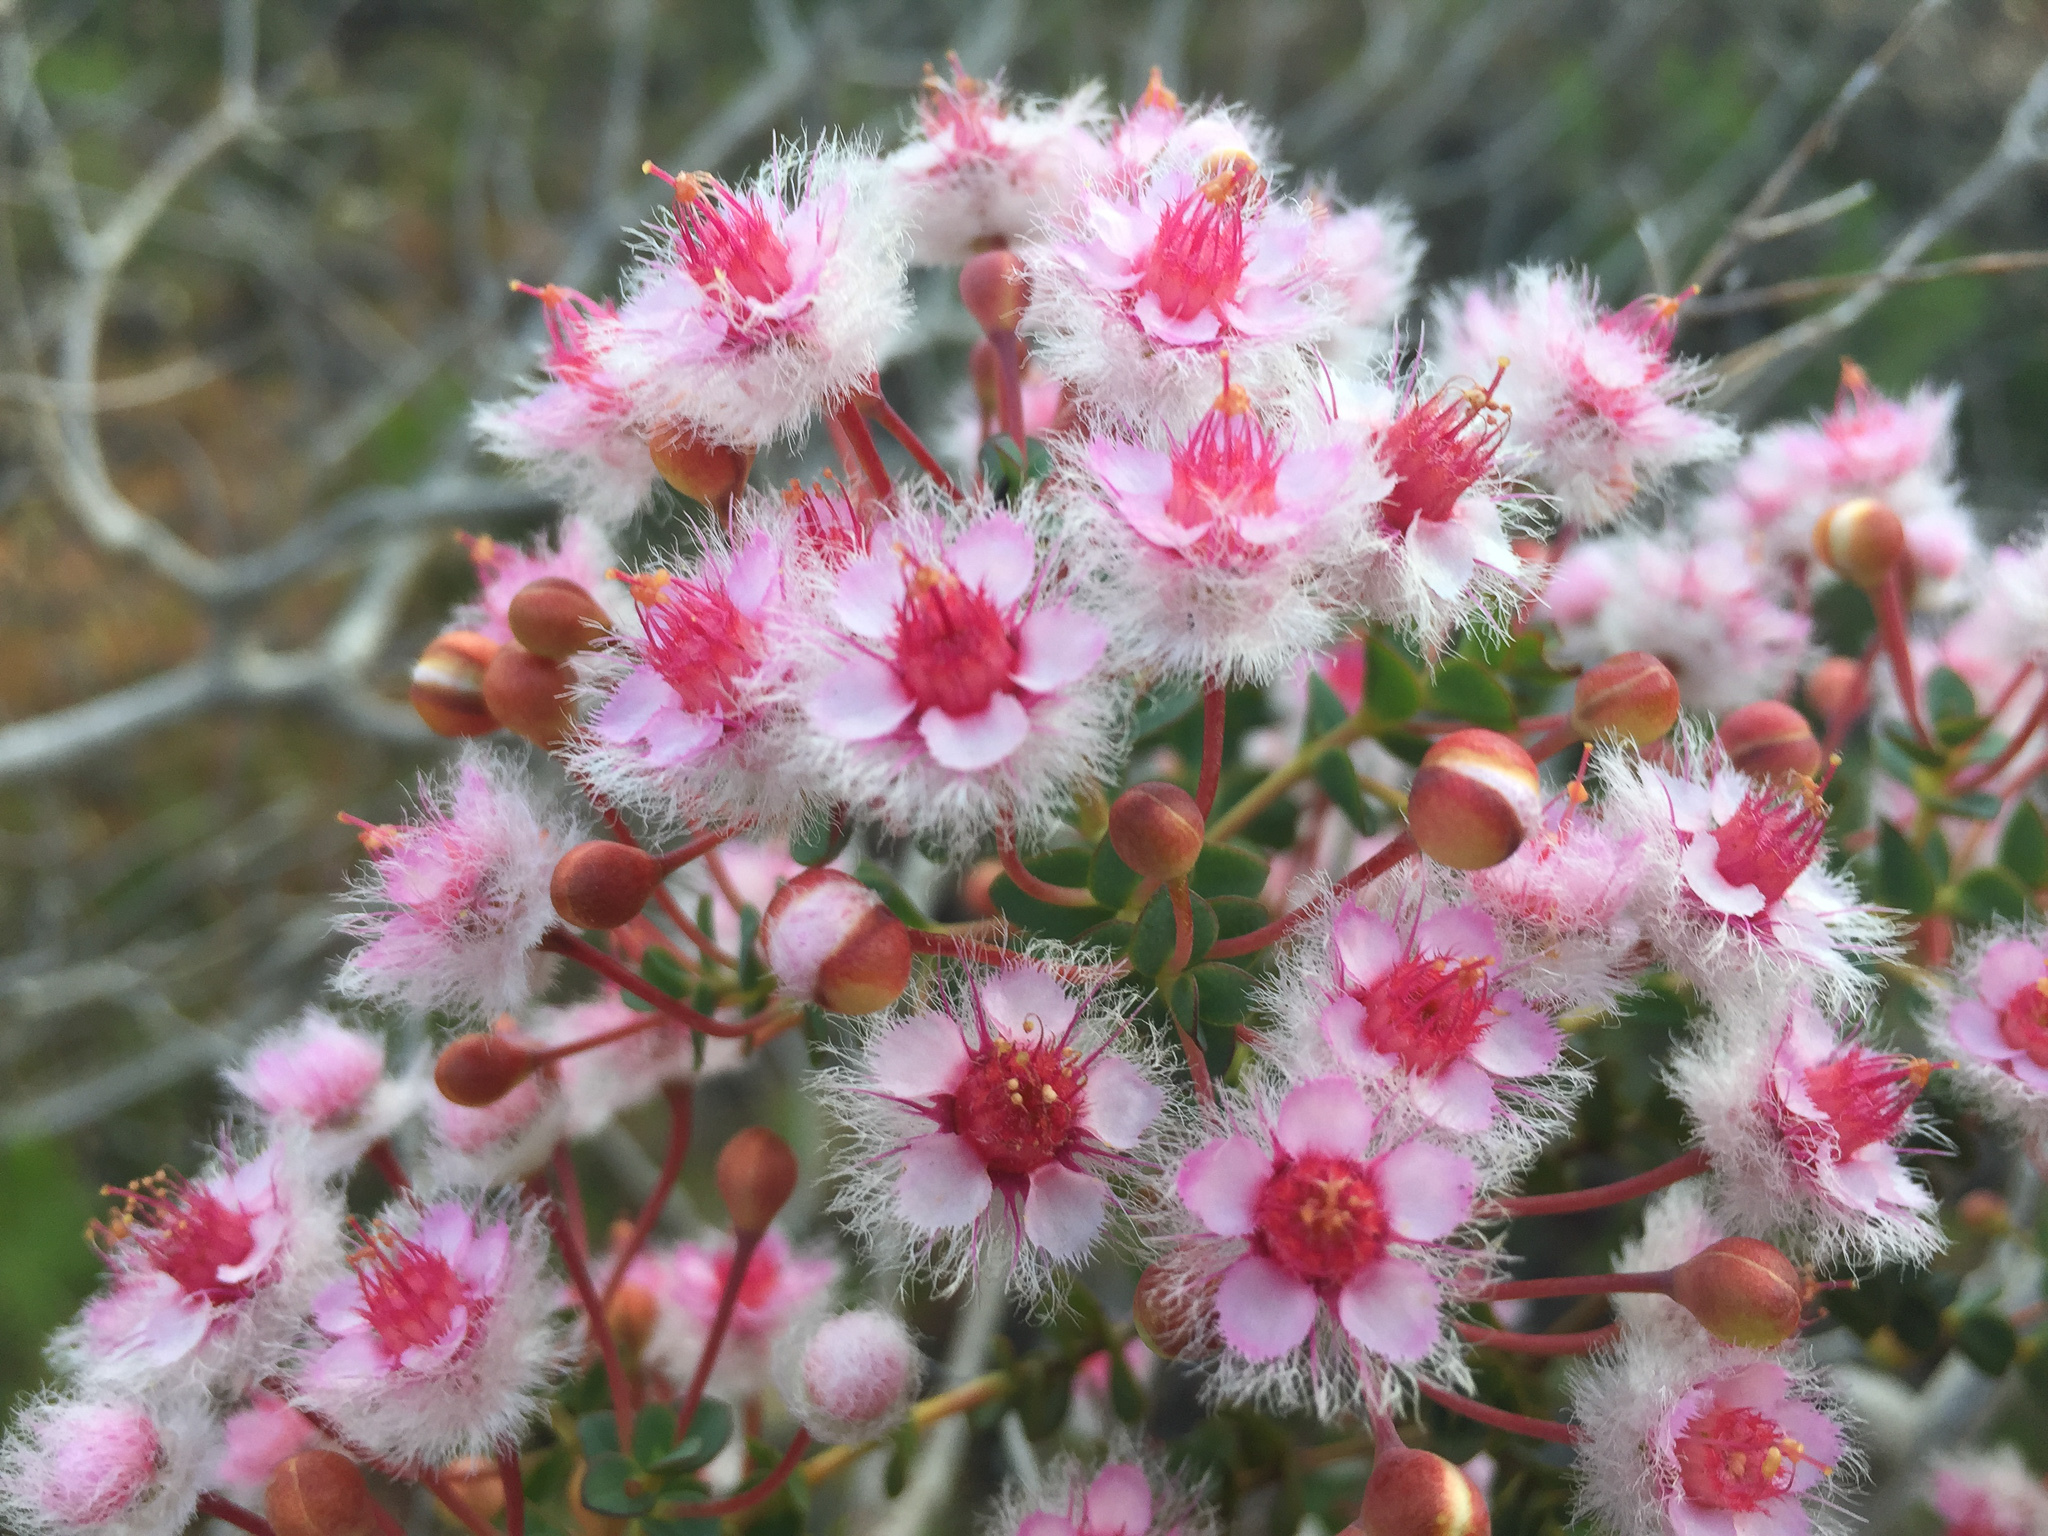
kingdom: Plantae
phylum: Tracheophyta
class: Magnoliopsida
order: Myrtales
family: Myrtaceae
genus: Verticordia
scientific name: Verticordia insignis
